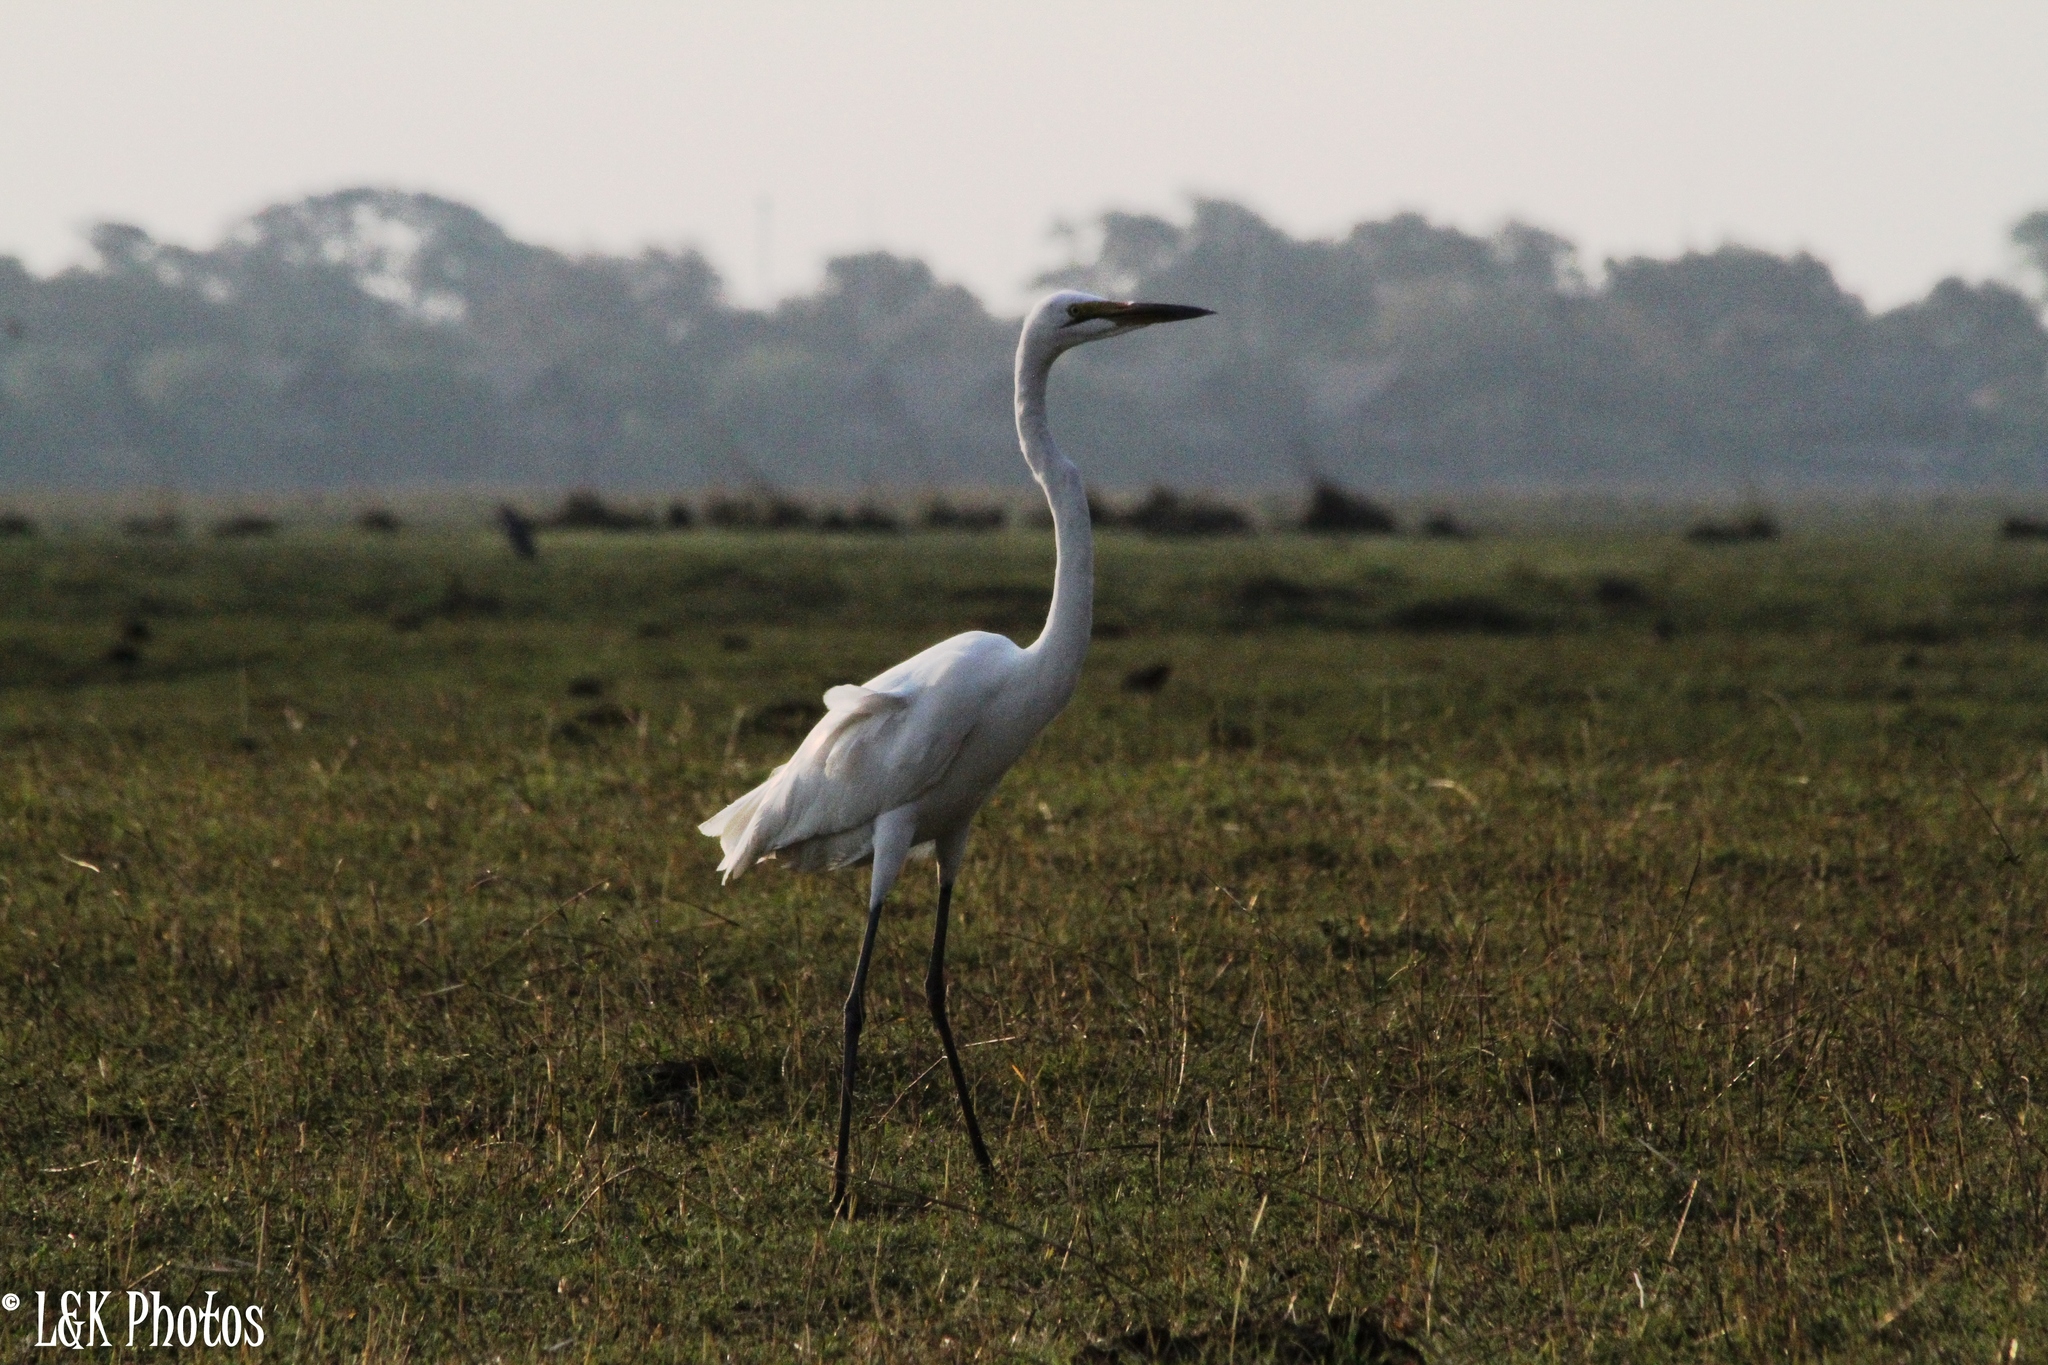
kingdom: Animalia
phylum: Chordata
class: Aves
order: Pelecaniformes
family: Ardeidae
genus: Ardea
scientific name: Ardea alba
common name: Great egret
